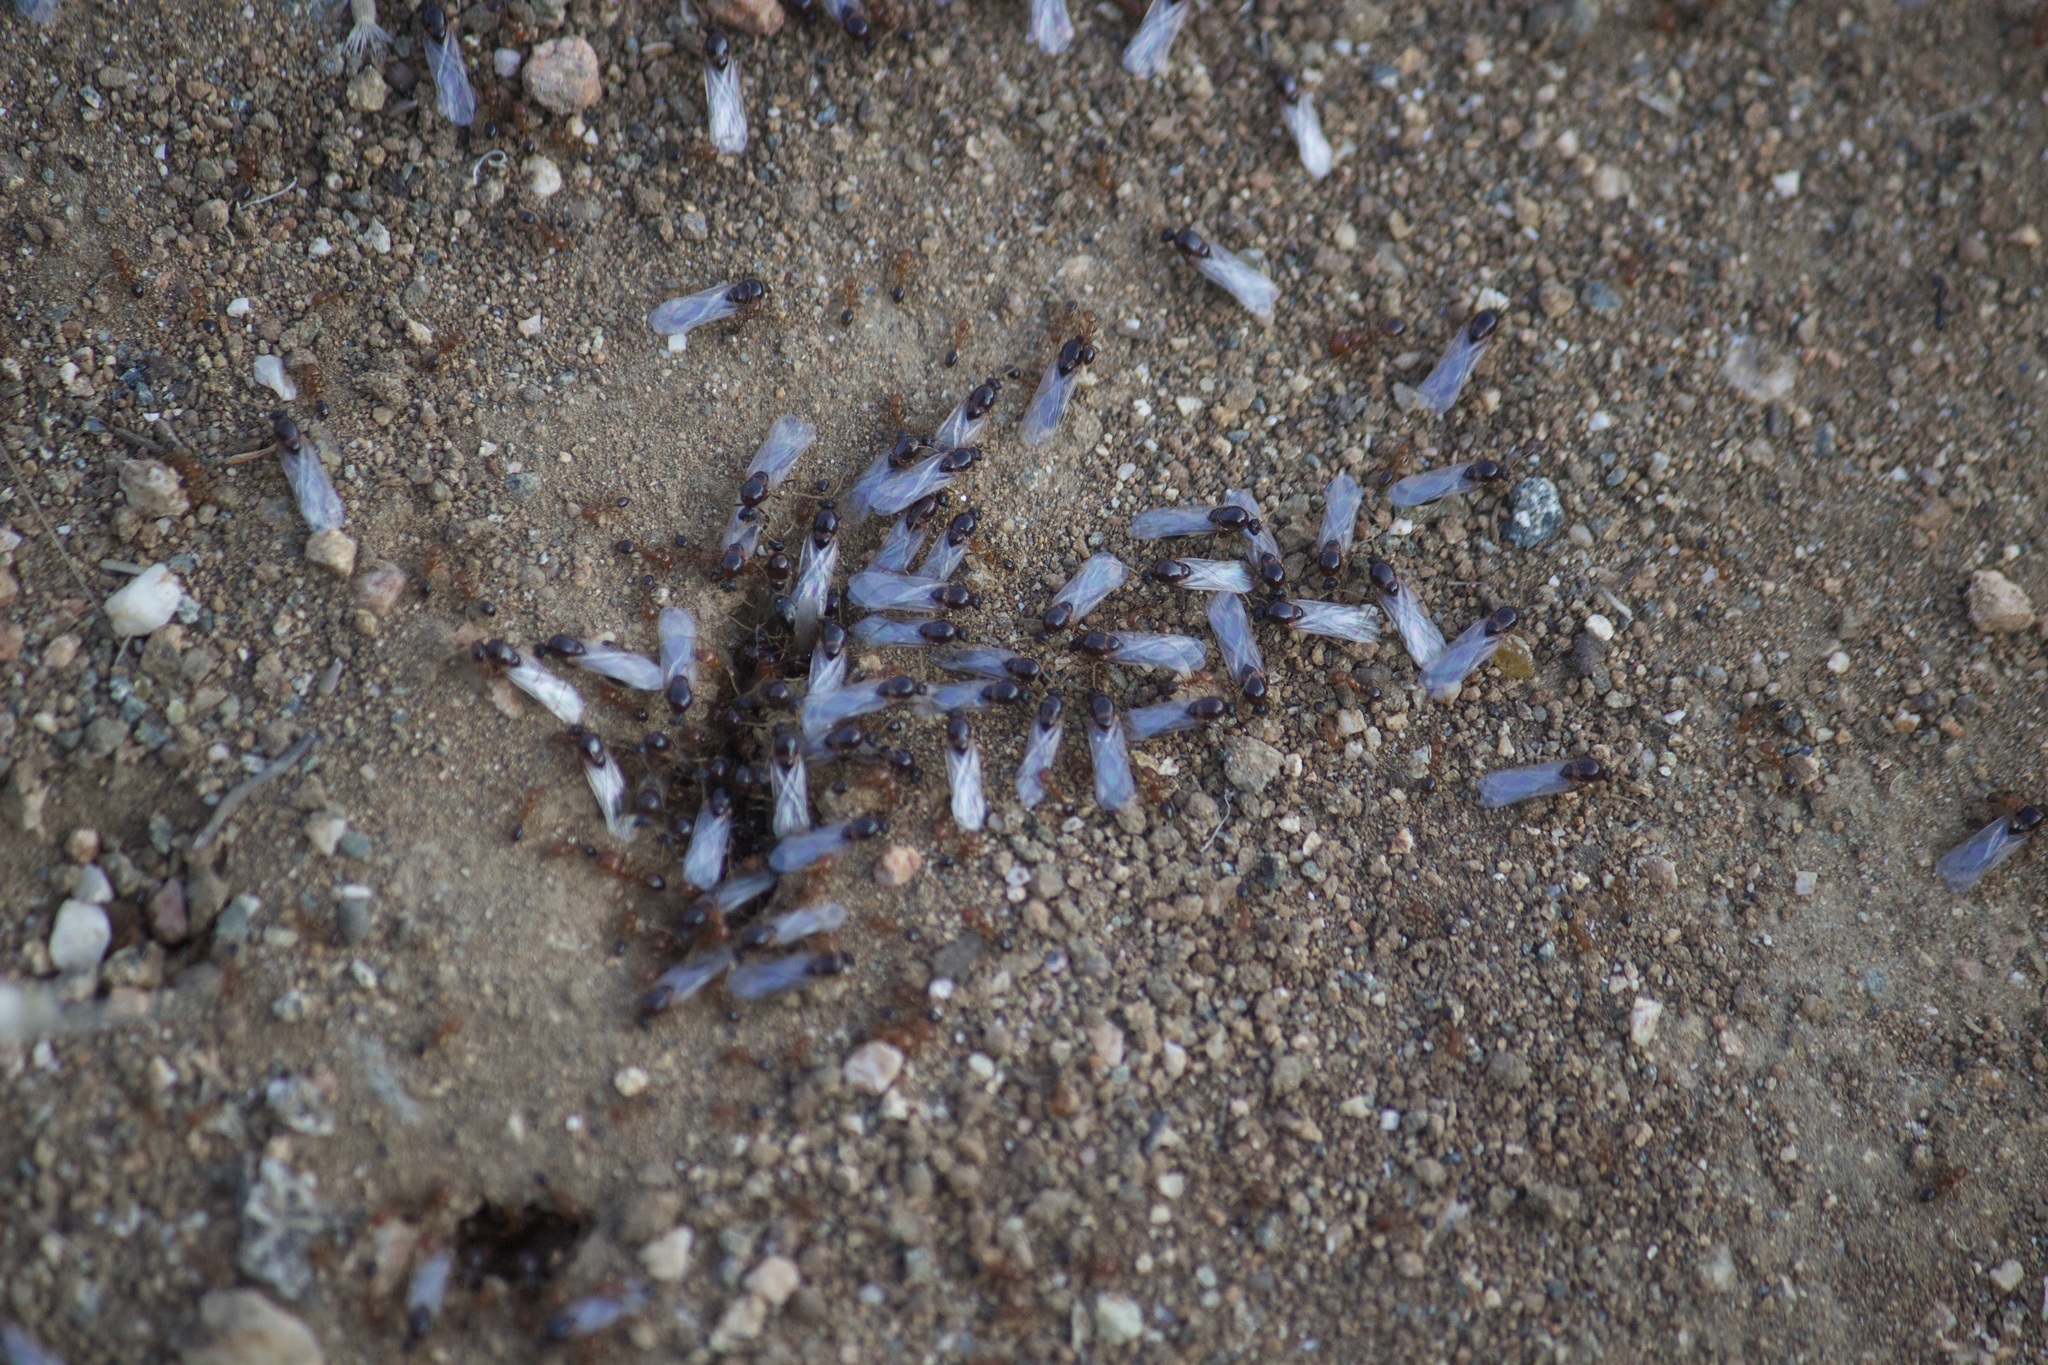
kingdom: Animalia
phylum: Arthropoda
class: Insecta
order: Hymenoptera
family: Formicidae
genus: Solenopsis
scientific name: Solenopsis xyloni
